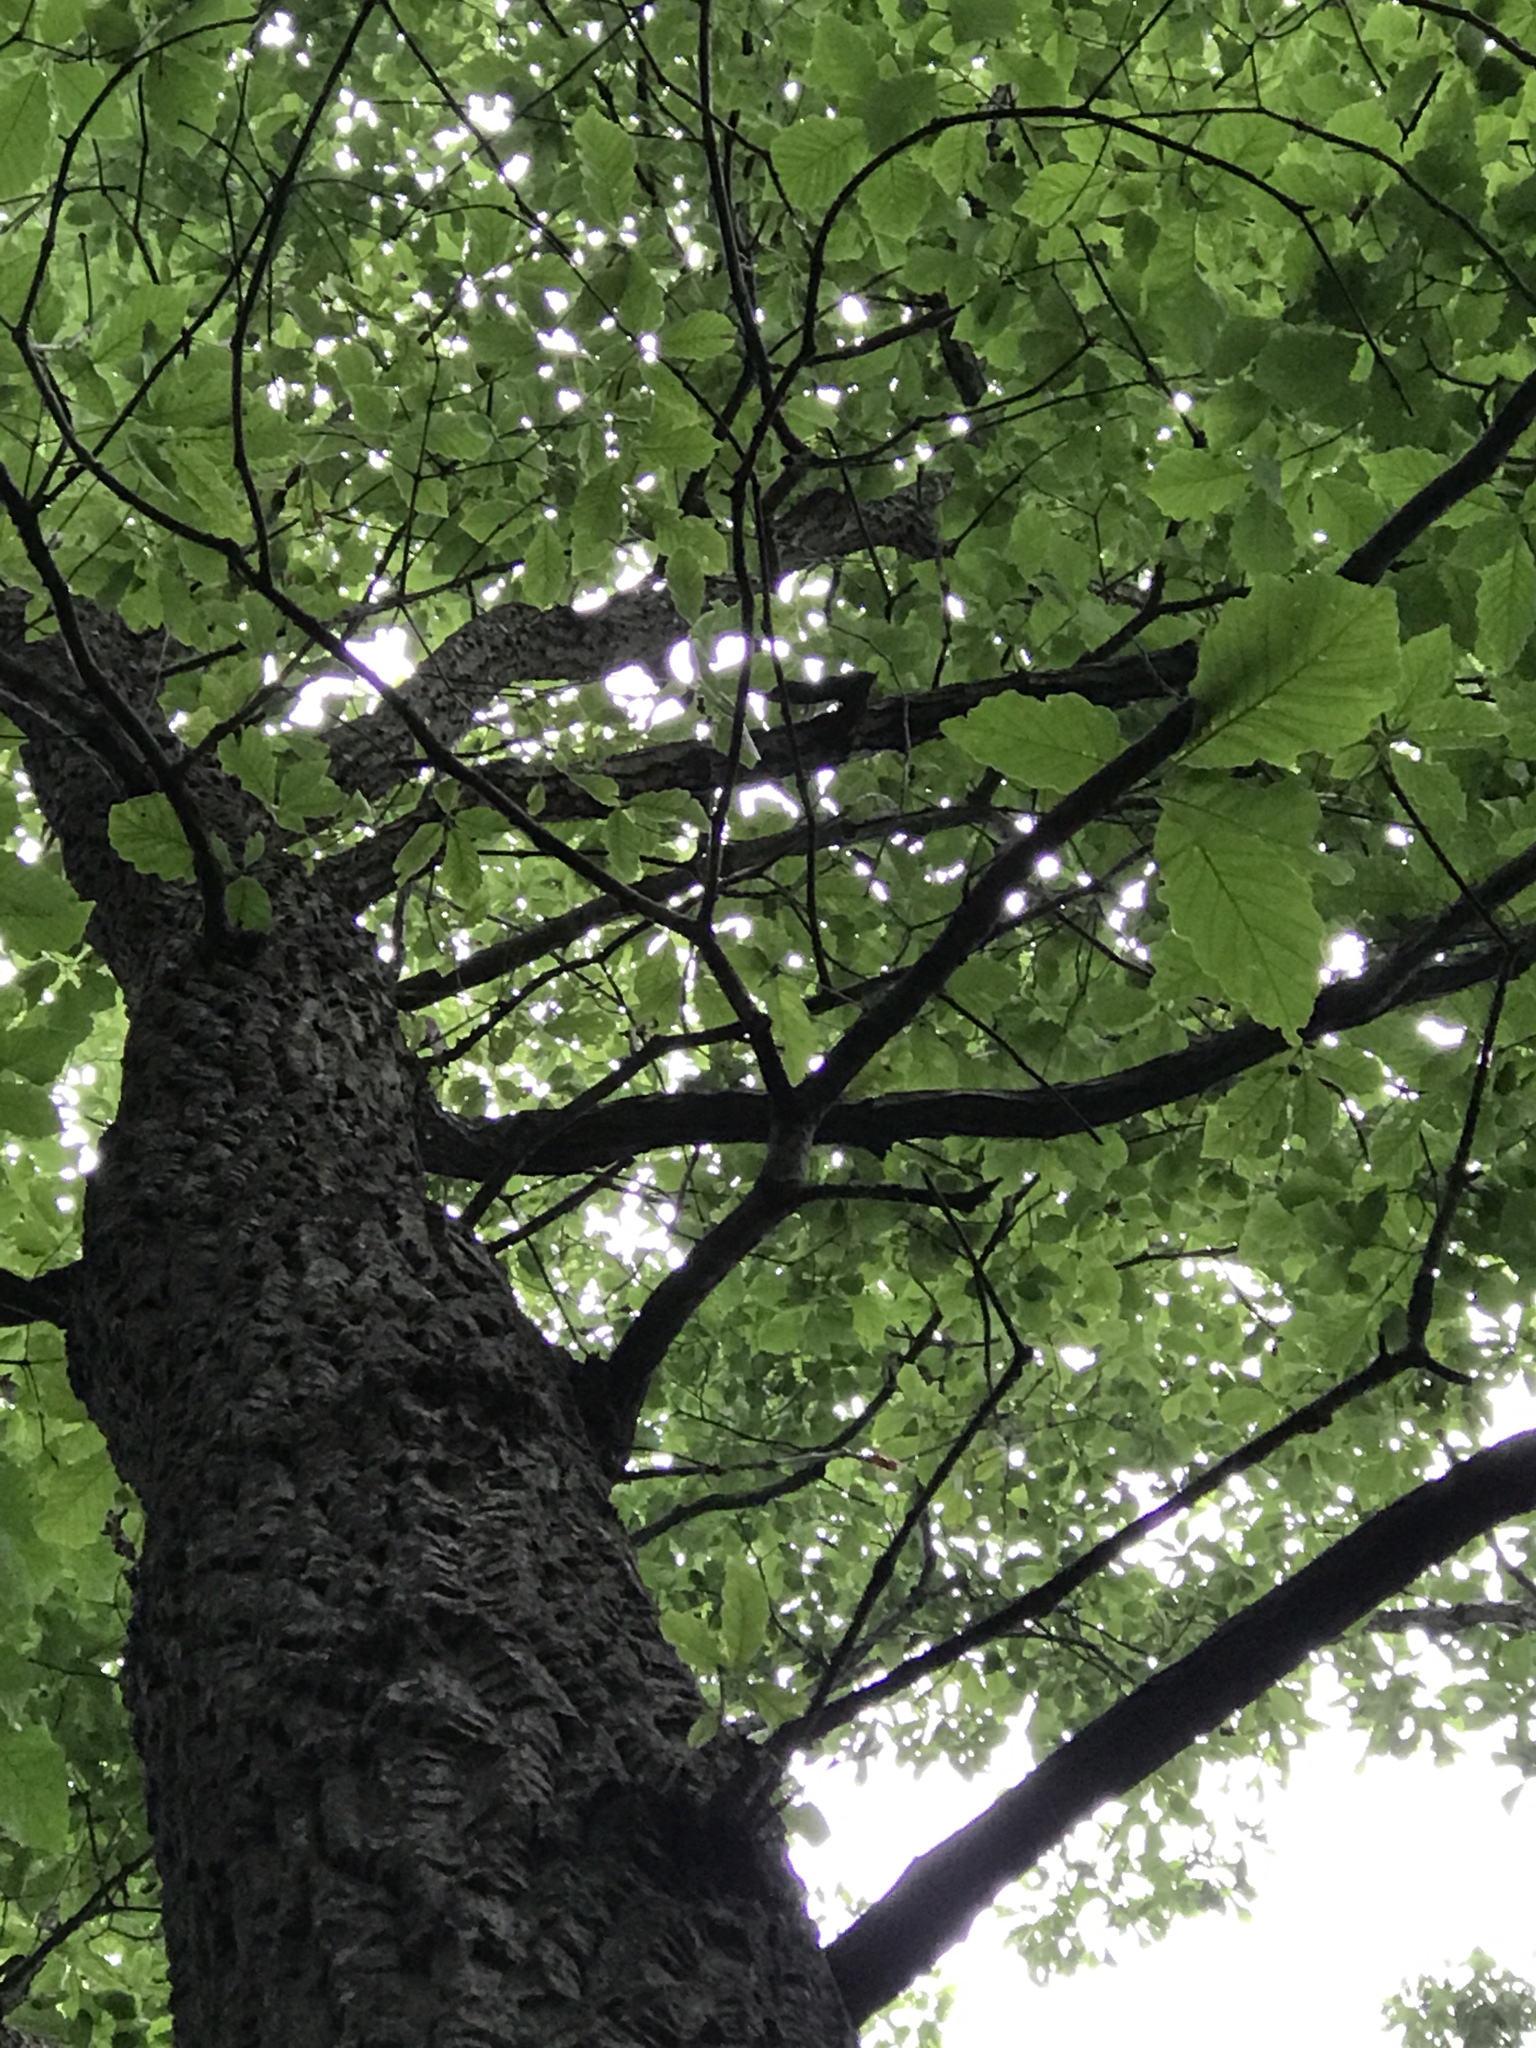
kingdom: Plantae
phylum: Tracheophyta
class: Magnoliopsida
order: Fagales
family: Fagaceae
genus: Quercus
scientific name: Quercus montana
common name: Chestnut oak
